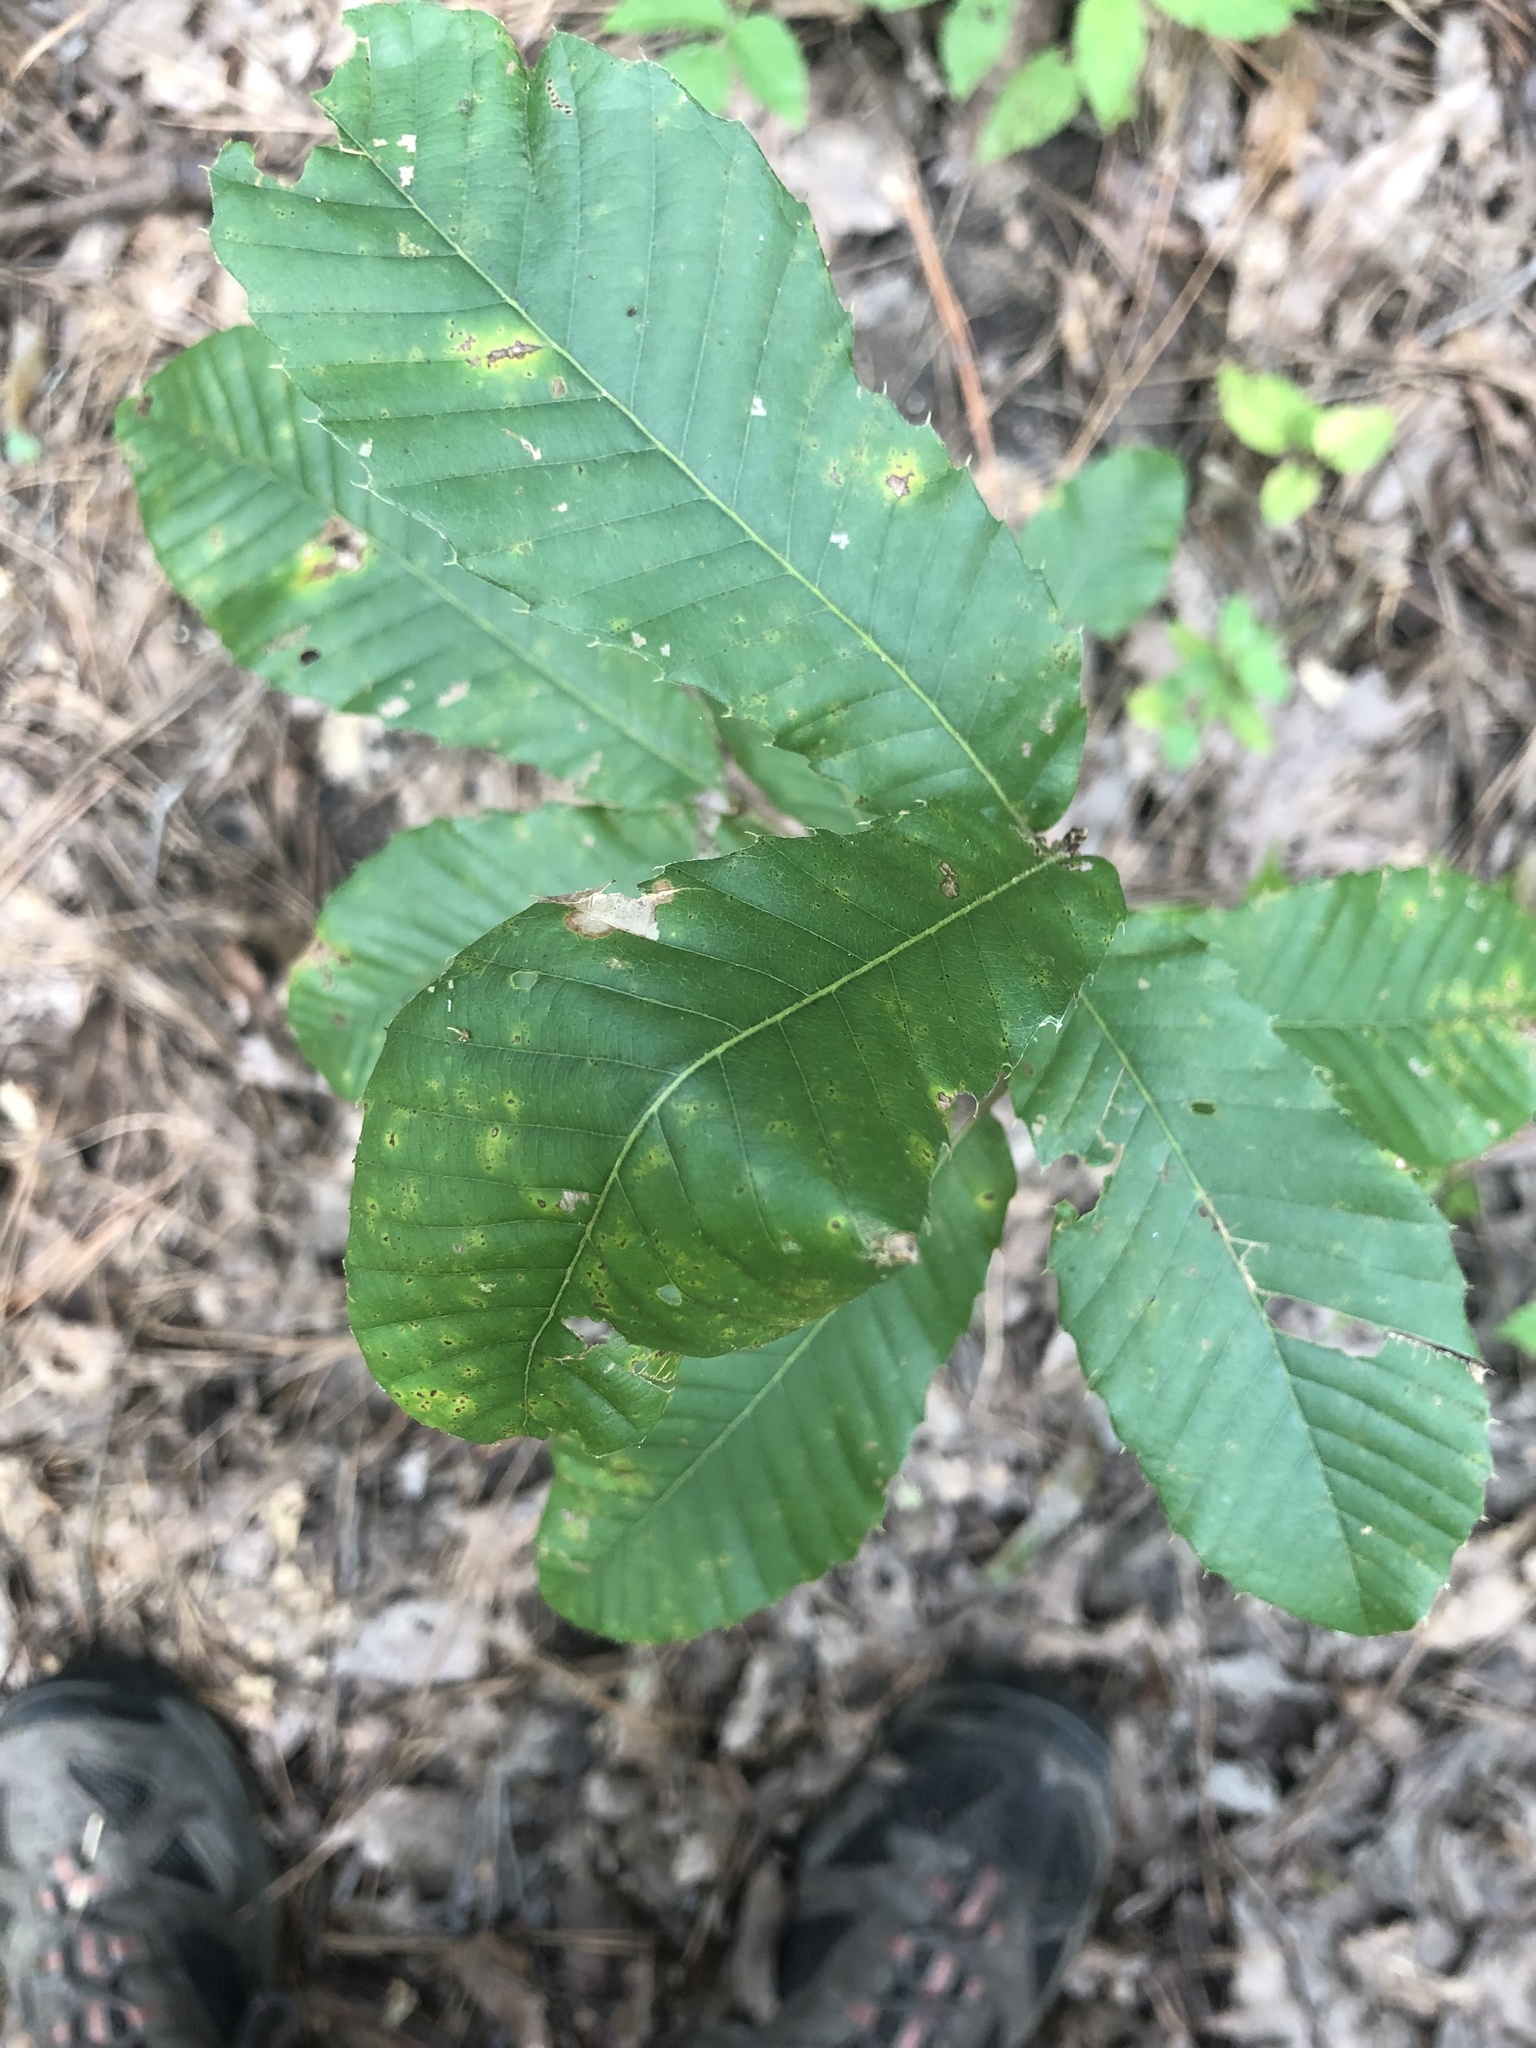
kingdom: Plantae
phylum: Tracheophyta
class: Magnoliopsida
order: Fagales
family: Fagaceae
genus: Quercus
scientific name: Quercus acutissima
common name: Sawtooth oak
